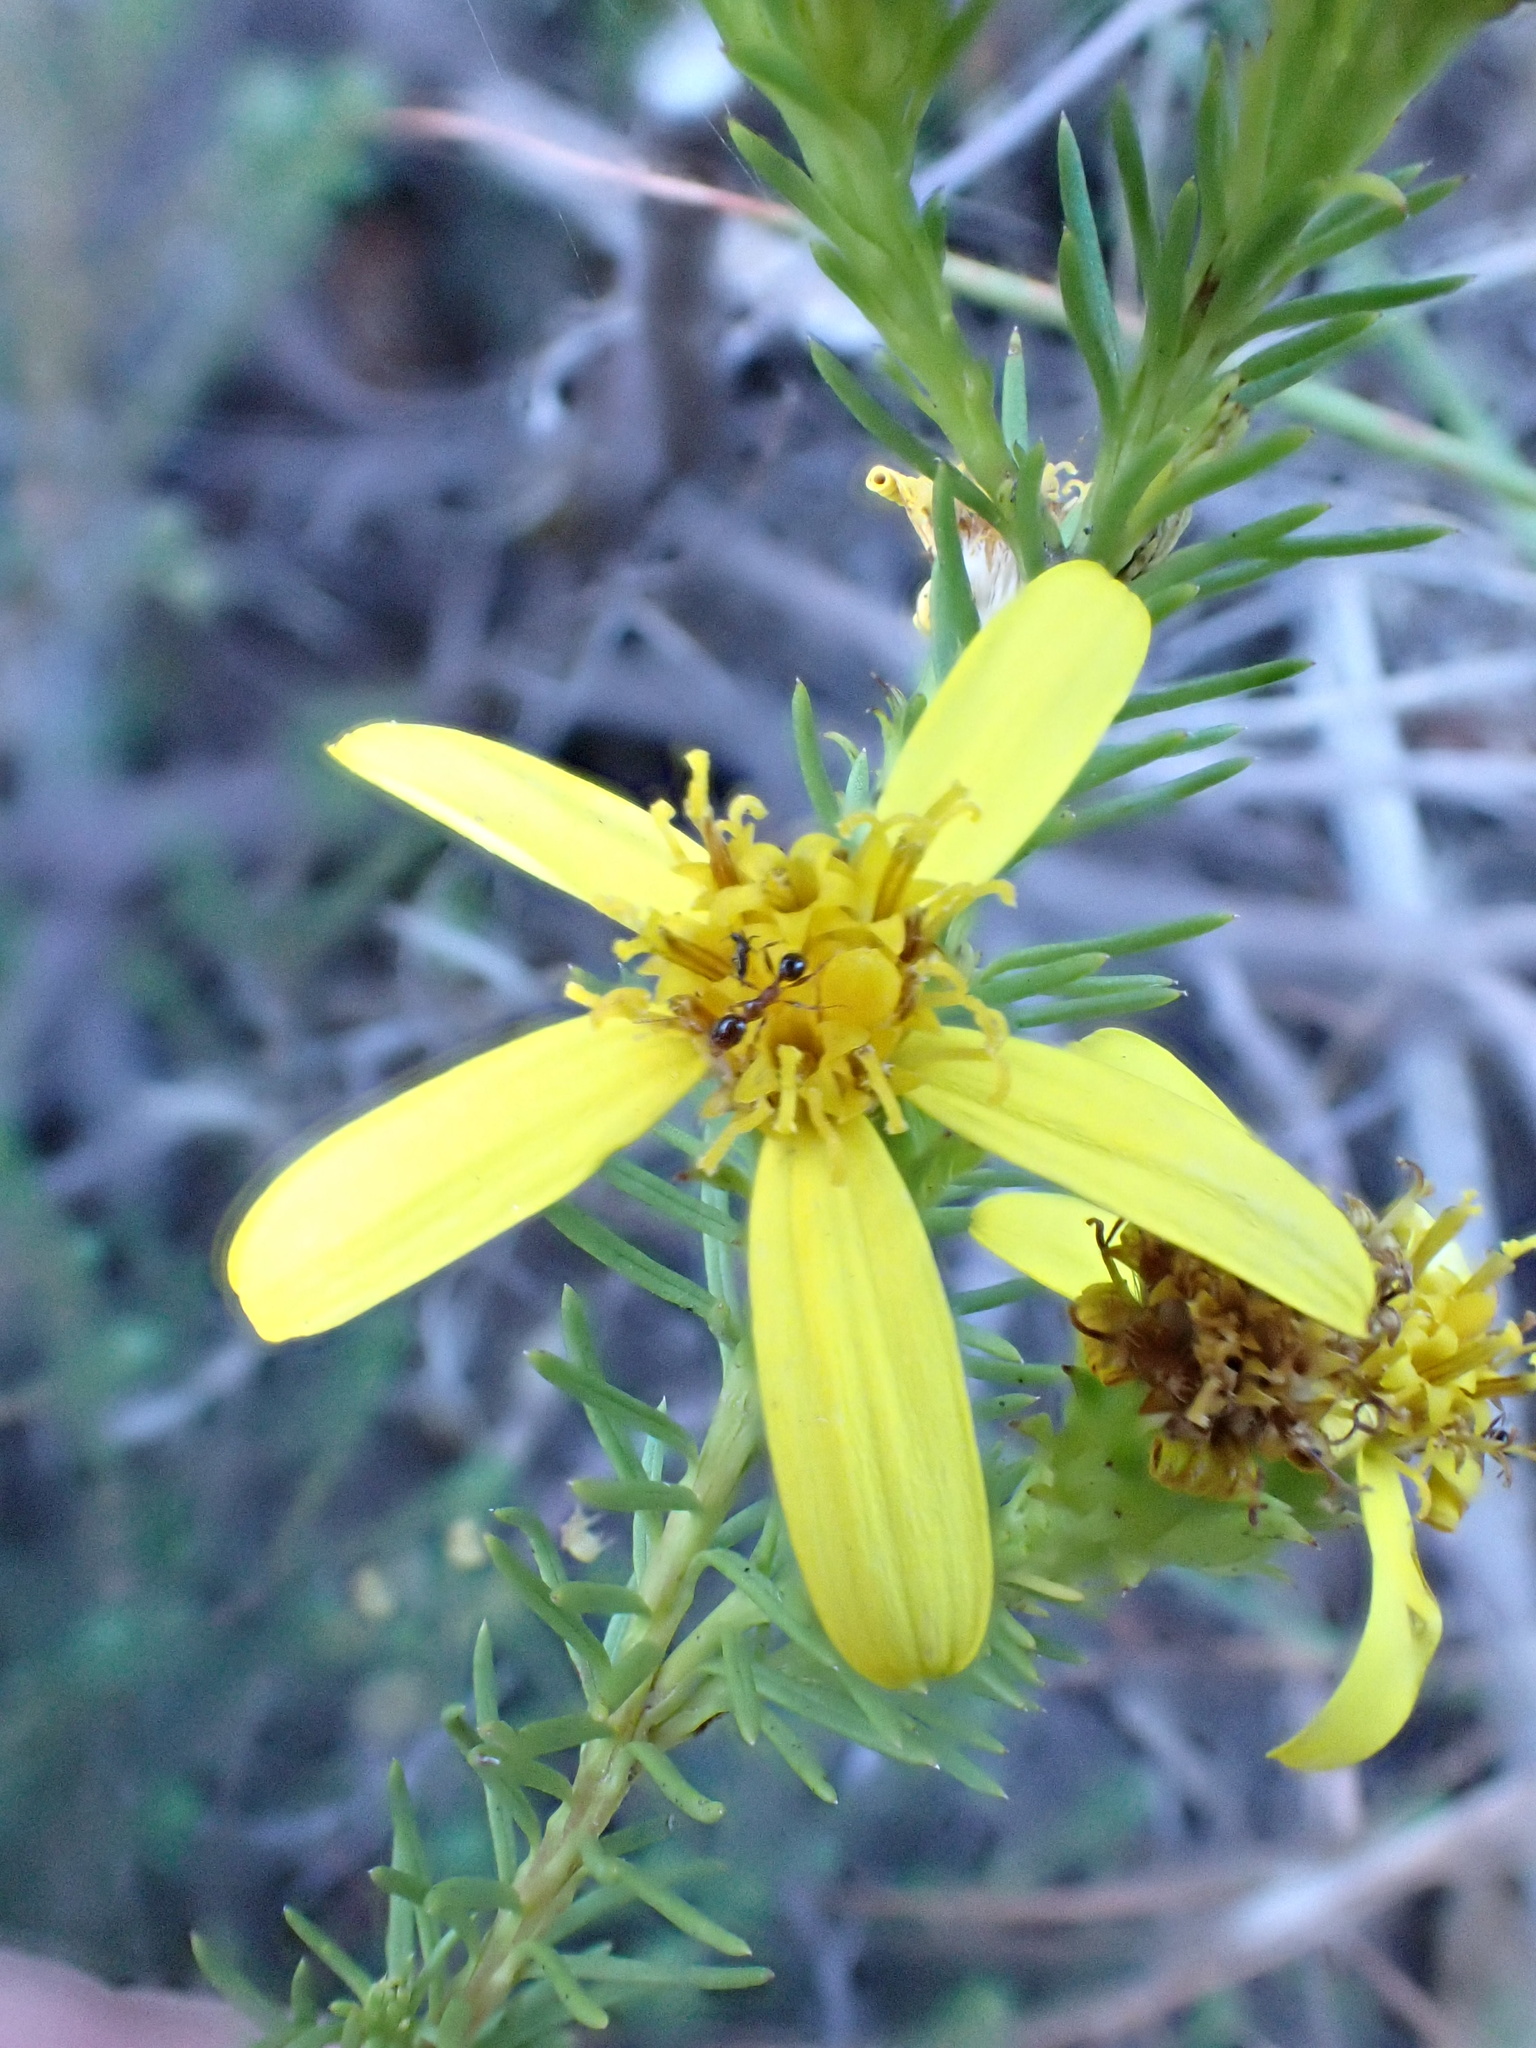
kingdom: Plantae
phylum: Tracheophyta
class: Magnoliopsida
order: Asterales
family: Asteraceae
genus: Senecio
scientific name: Senecio pinifolius
